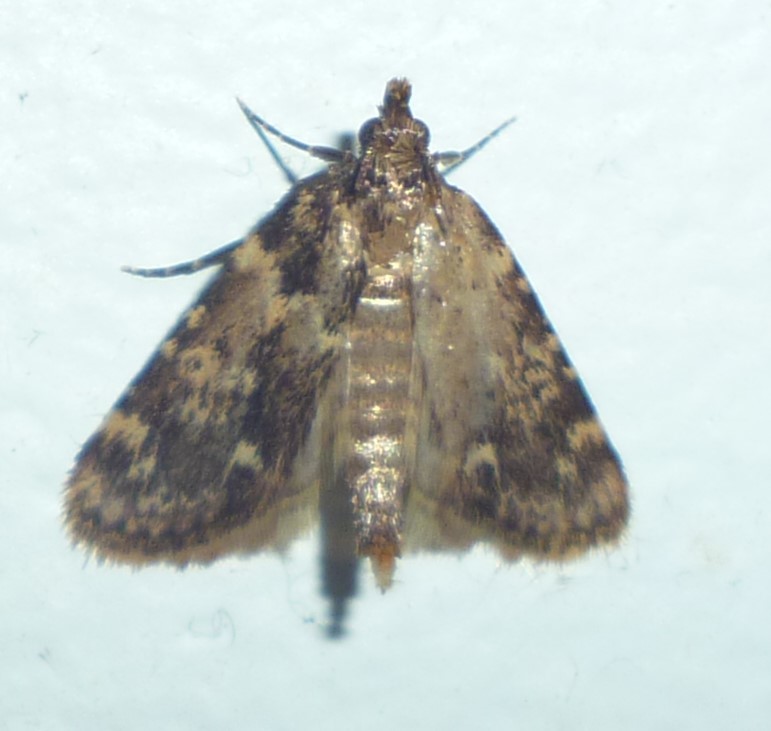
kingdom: Animalia
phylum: Arthropoda
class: Insecta
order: Lepidoptera
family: Pyralidae
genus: Aglossa
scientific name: Aglossa caprealis
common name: Small tabby
